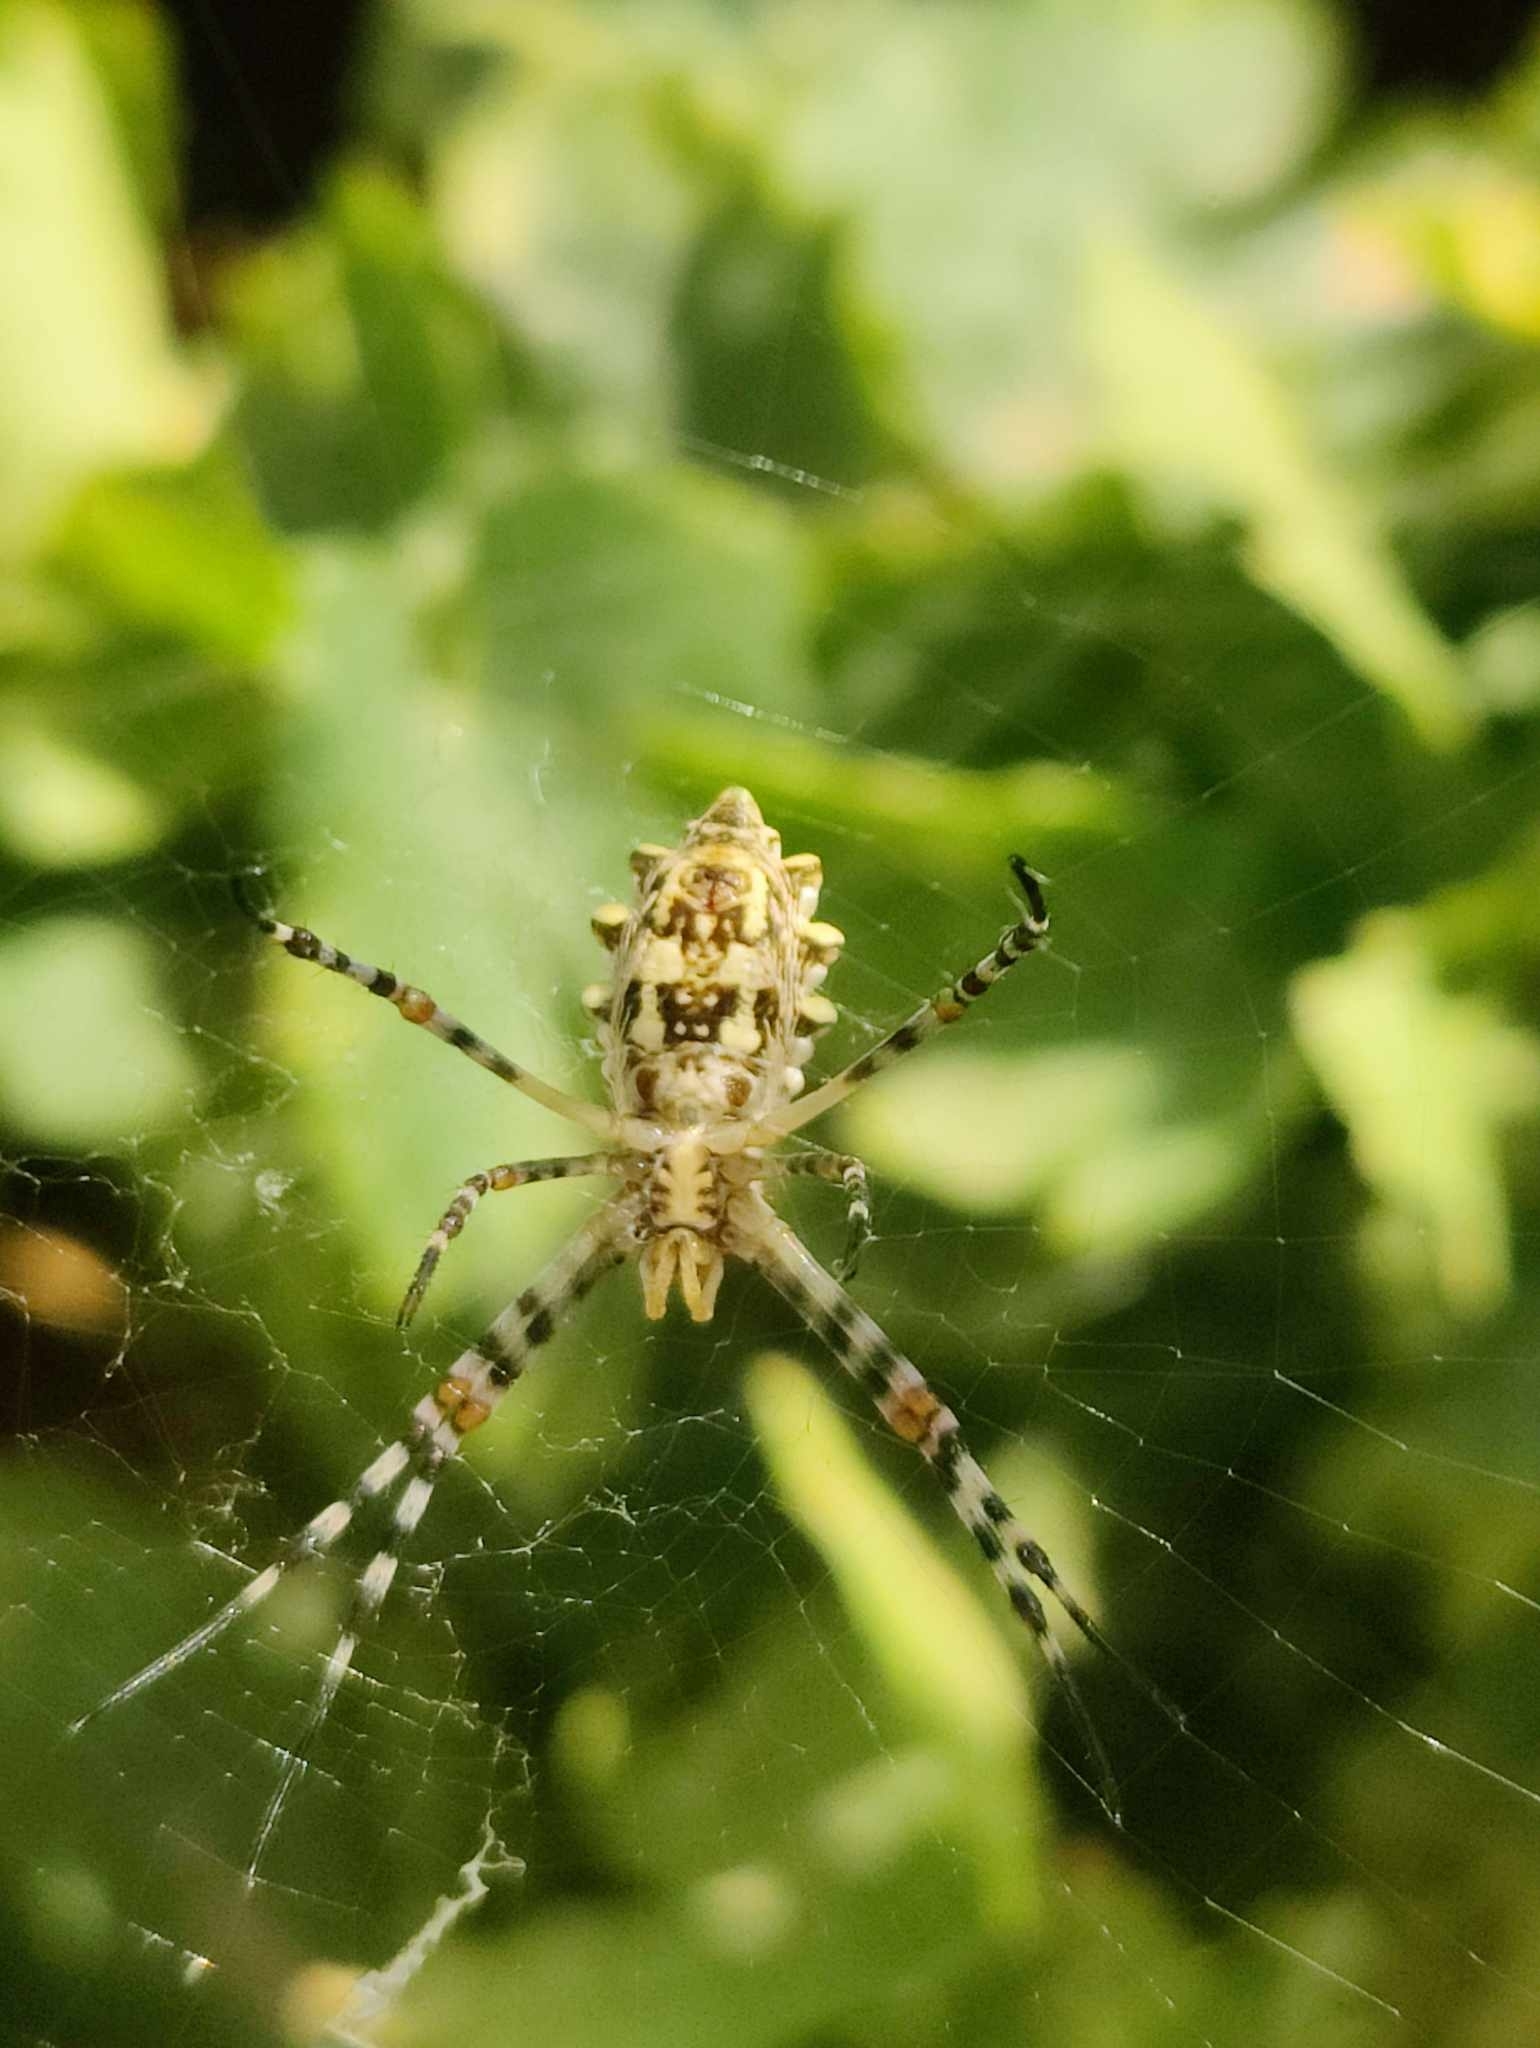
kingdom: Animalia
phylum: Arthropoda
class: Arachnida
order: Araneae
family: Araneidae
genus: Argiope
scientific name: Argiope sector
